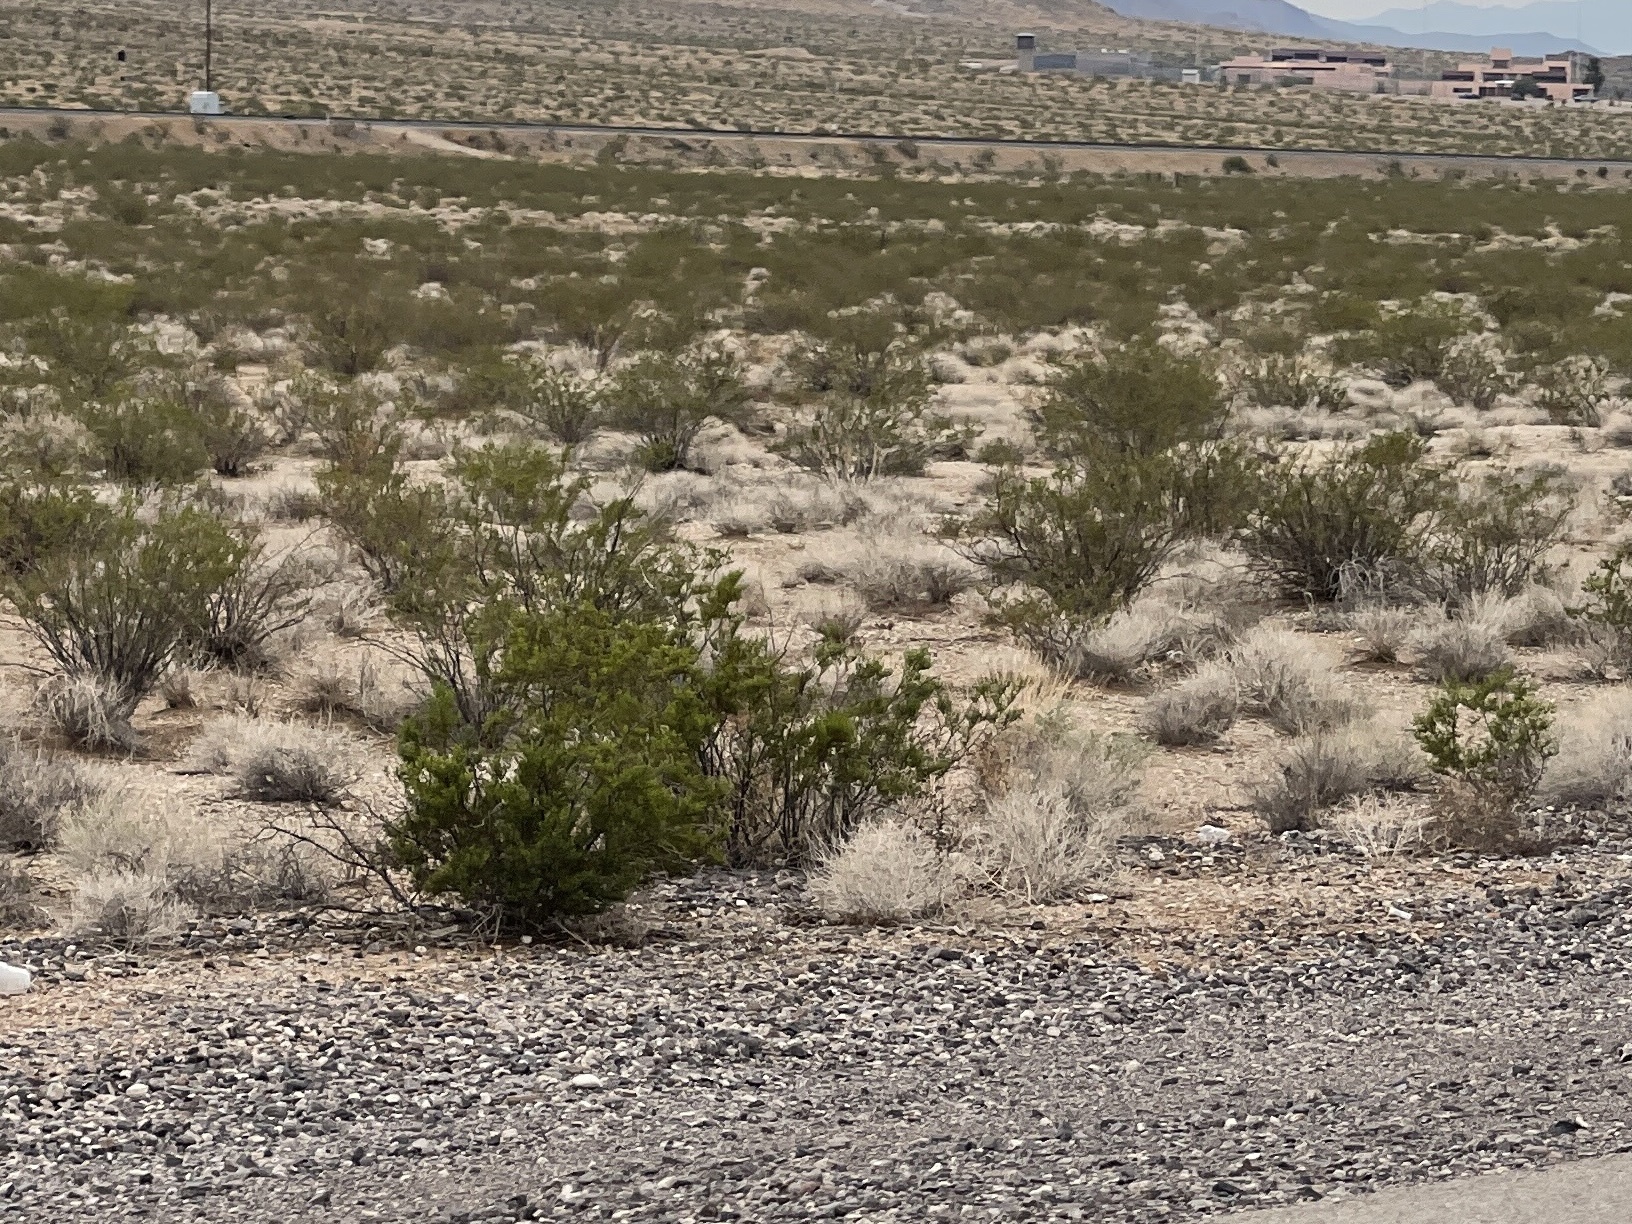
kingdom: Plantae
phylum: Tracheophyta
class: Magnoliopsida
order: Zygophyllales
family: Zygophyllaceae
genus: Larrea
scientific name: Larrea tridentata
